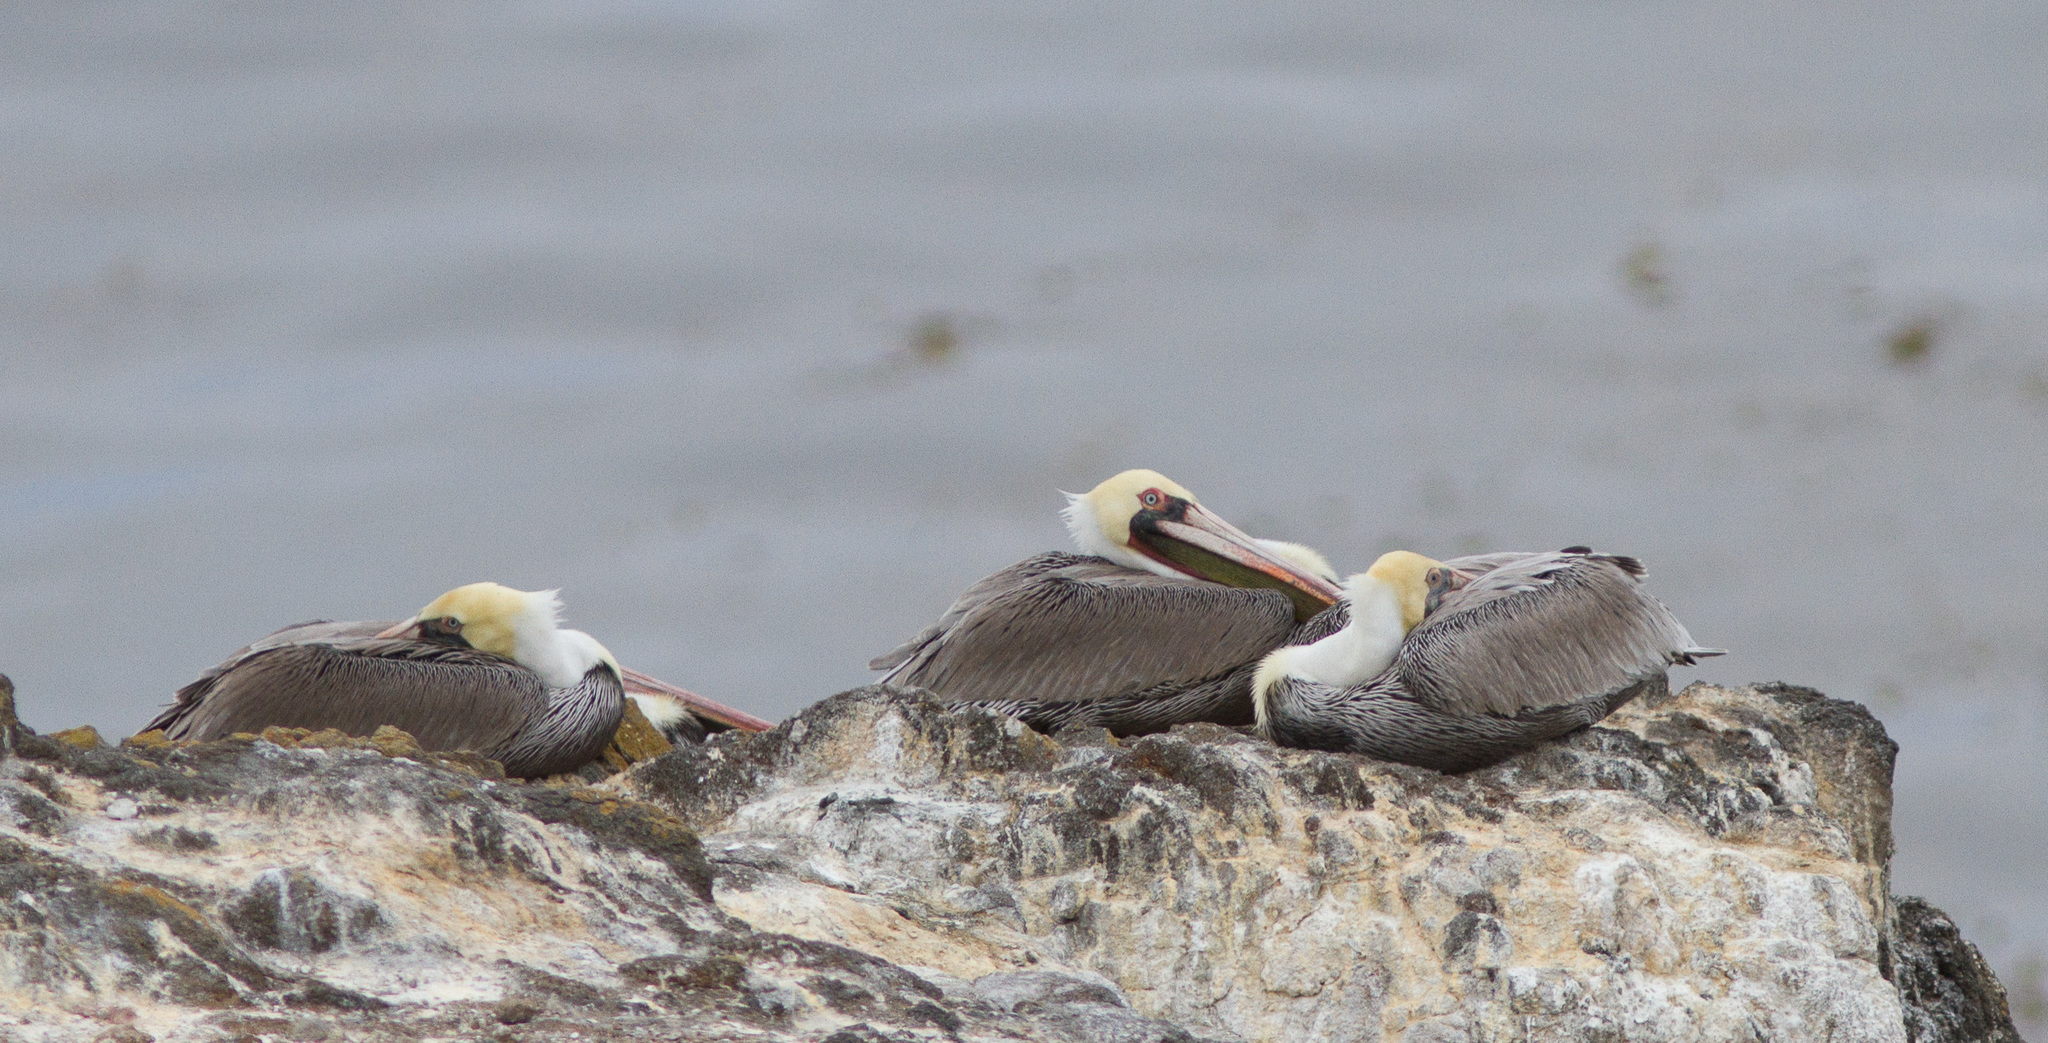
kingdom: Animalia
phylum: Chordata
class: Aves
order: Pelecaniformes
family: Pelecanidae
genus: Pelecanus
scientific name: Pelecanus occidentalis
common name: Brown pelican
